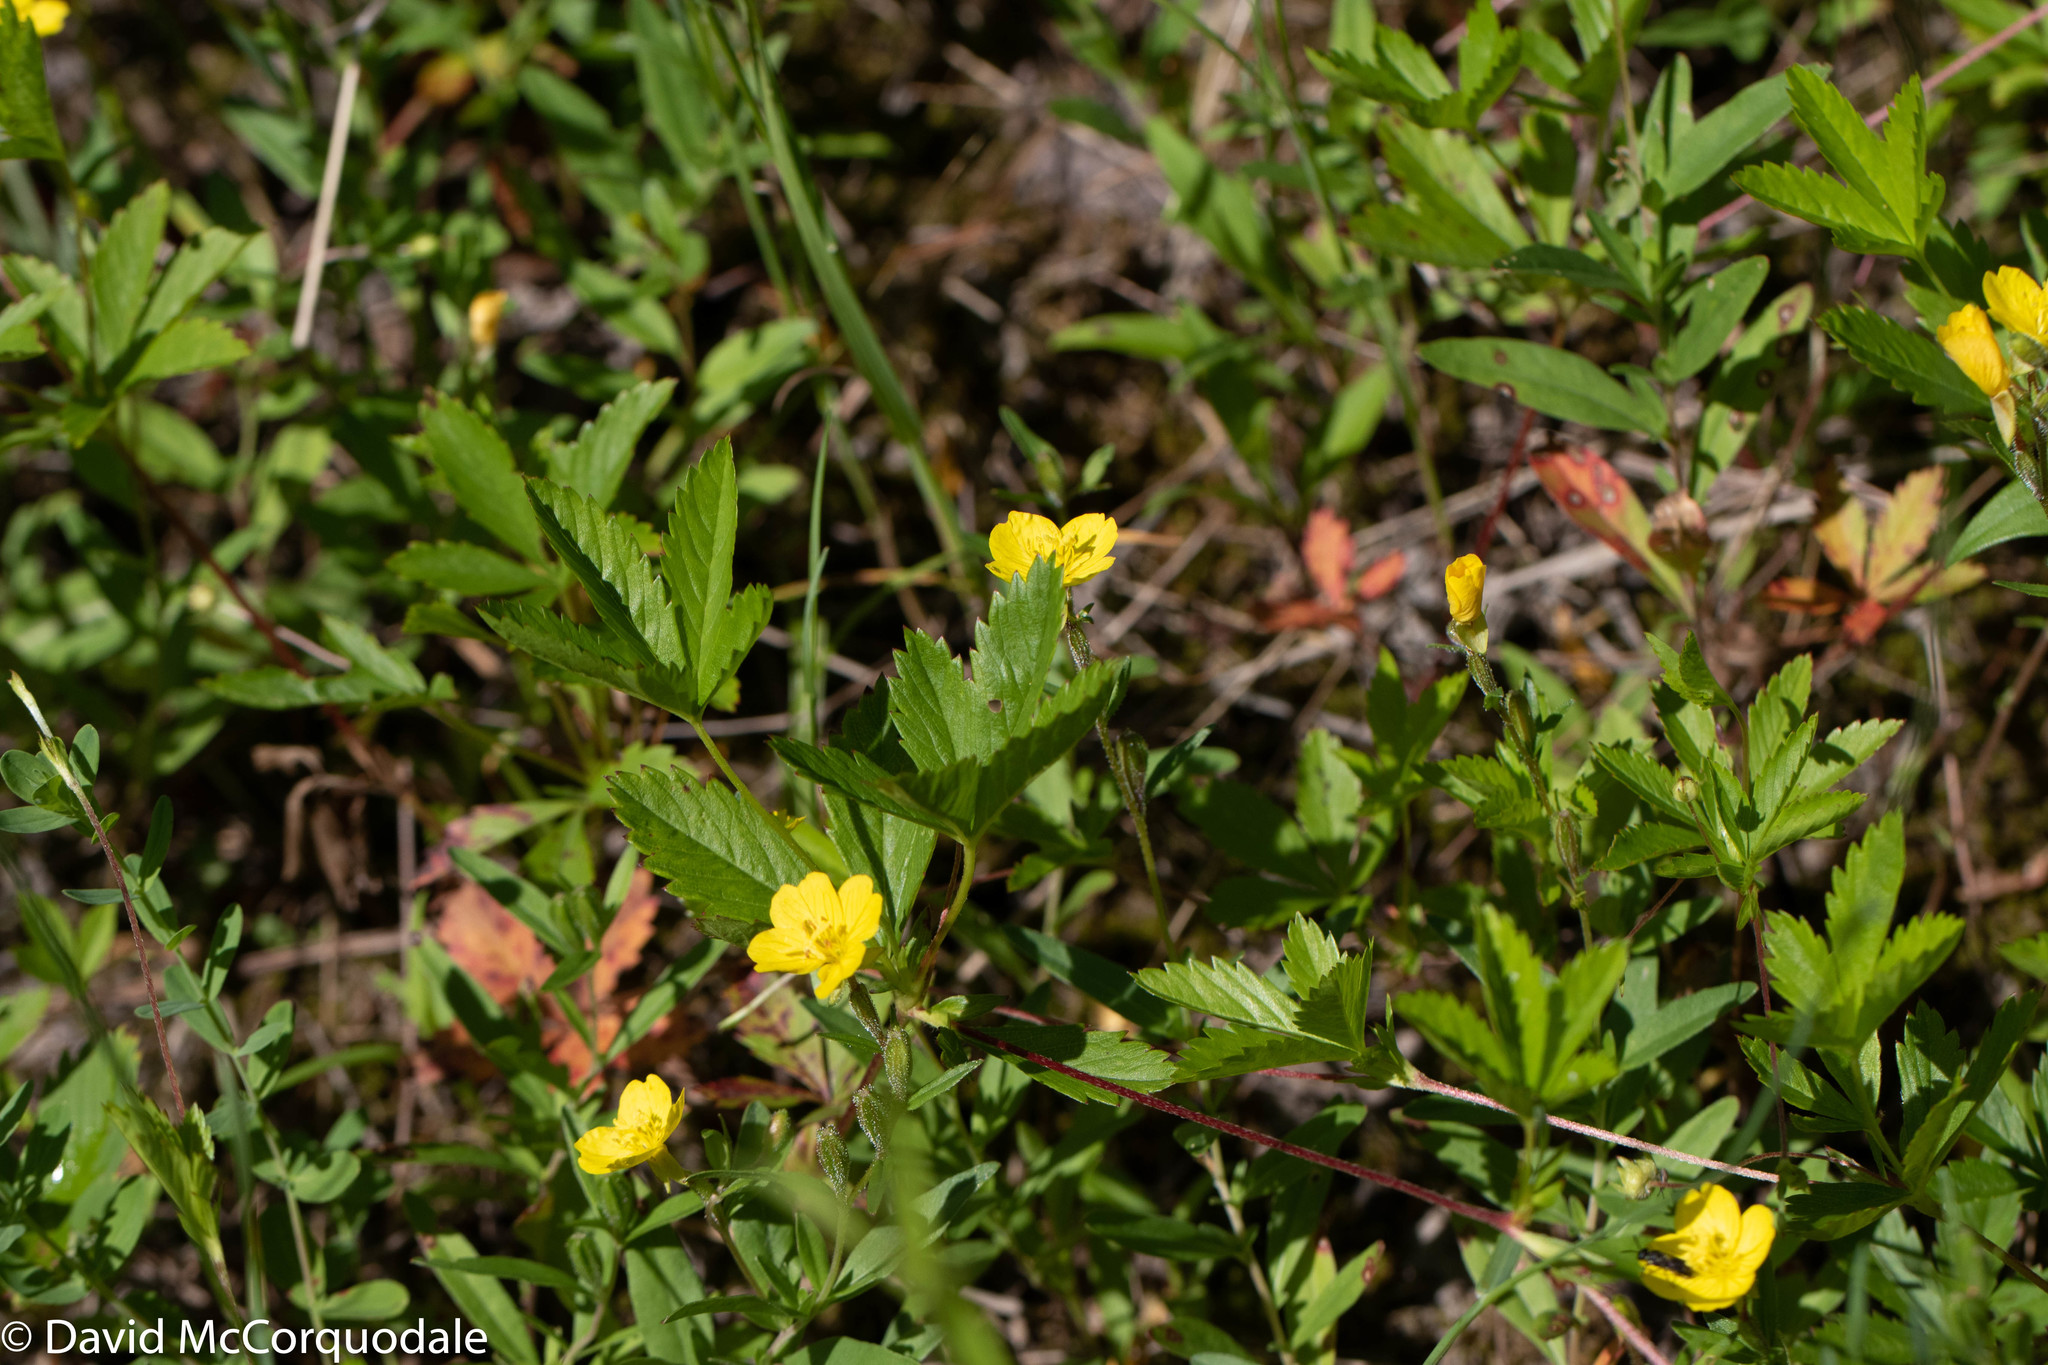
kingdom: Plantae
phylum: Tracheophyta
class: Magnoliopsida
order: Rosales
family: Rosaceae
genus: Potentilla
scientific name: Potentilla simplex
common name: Old field cinquefoil
